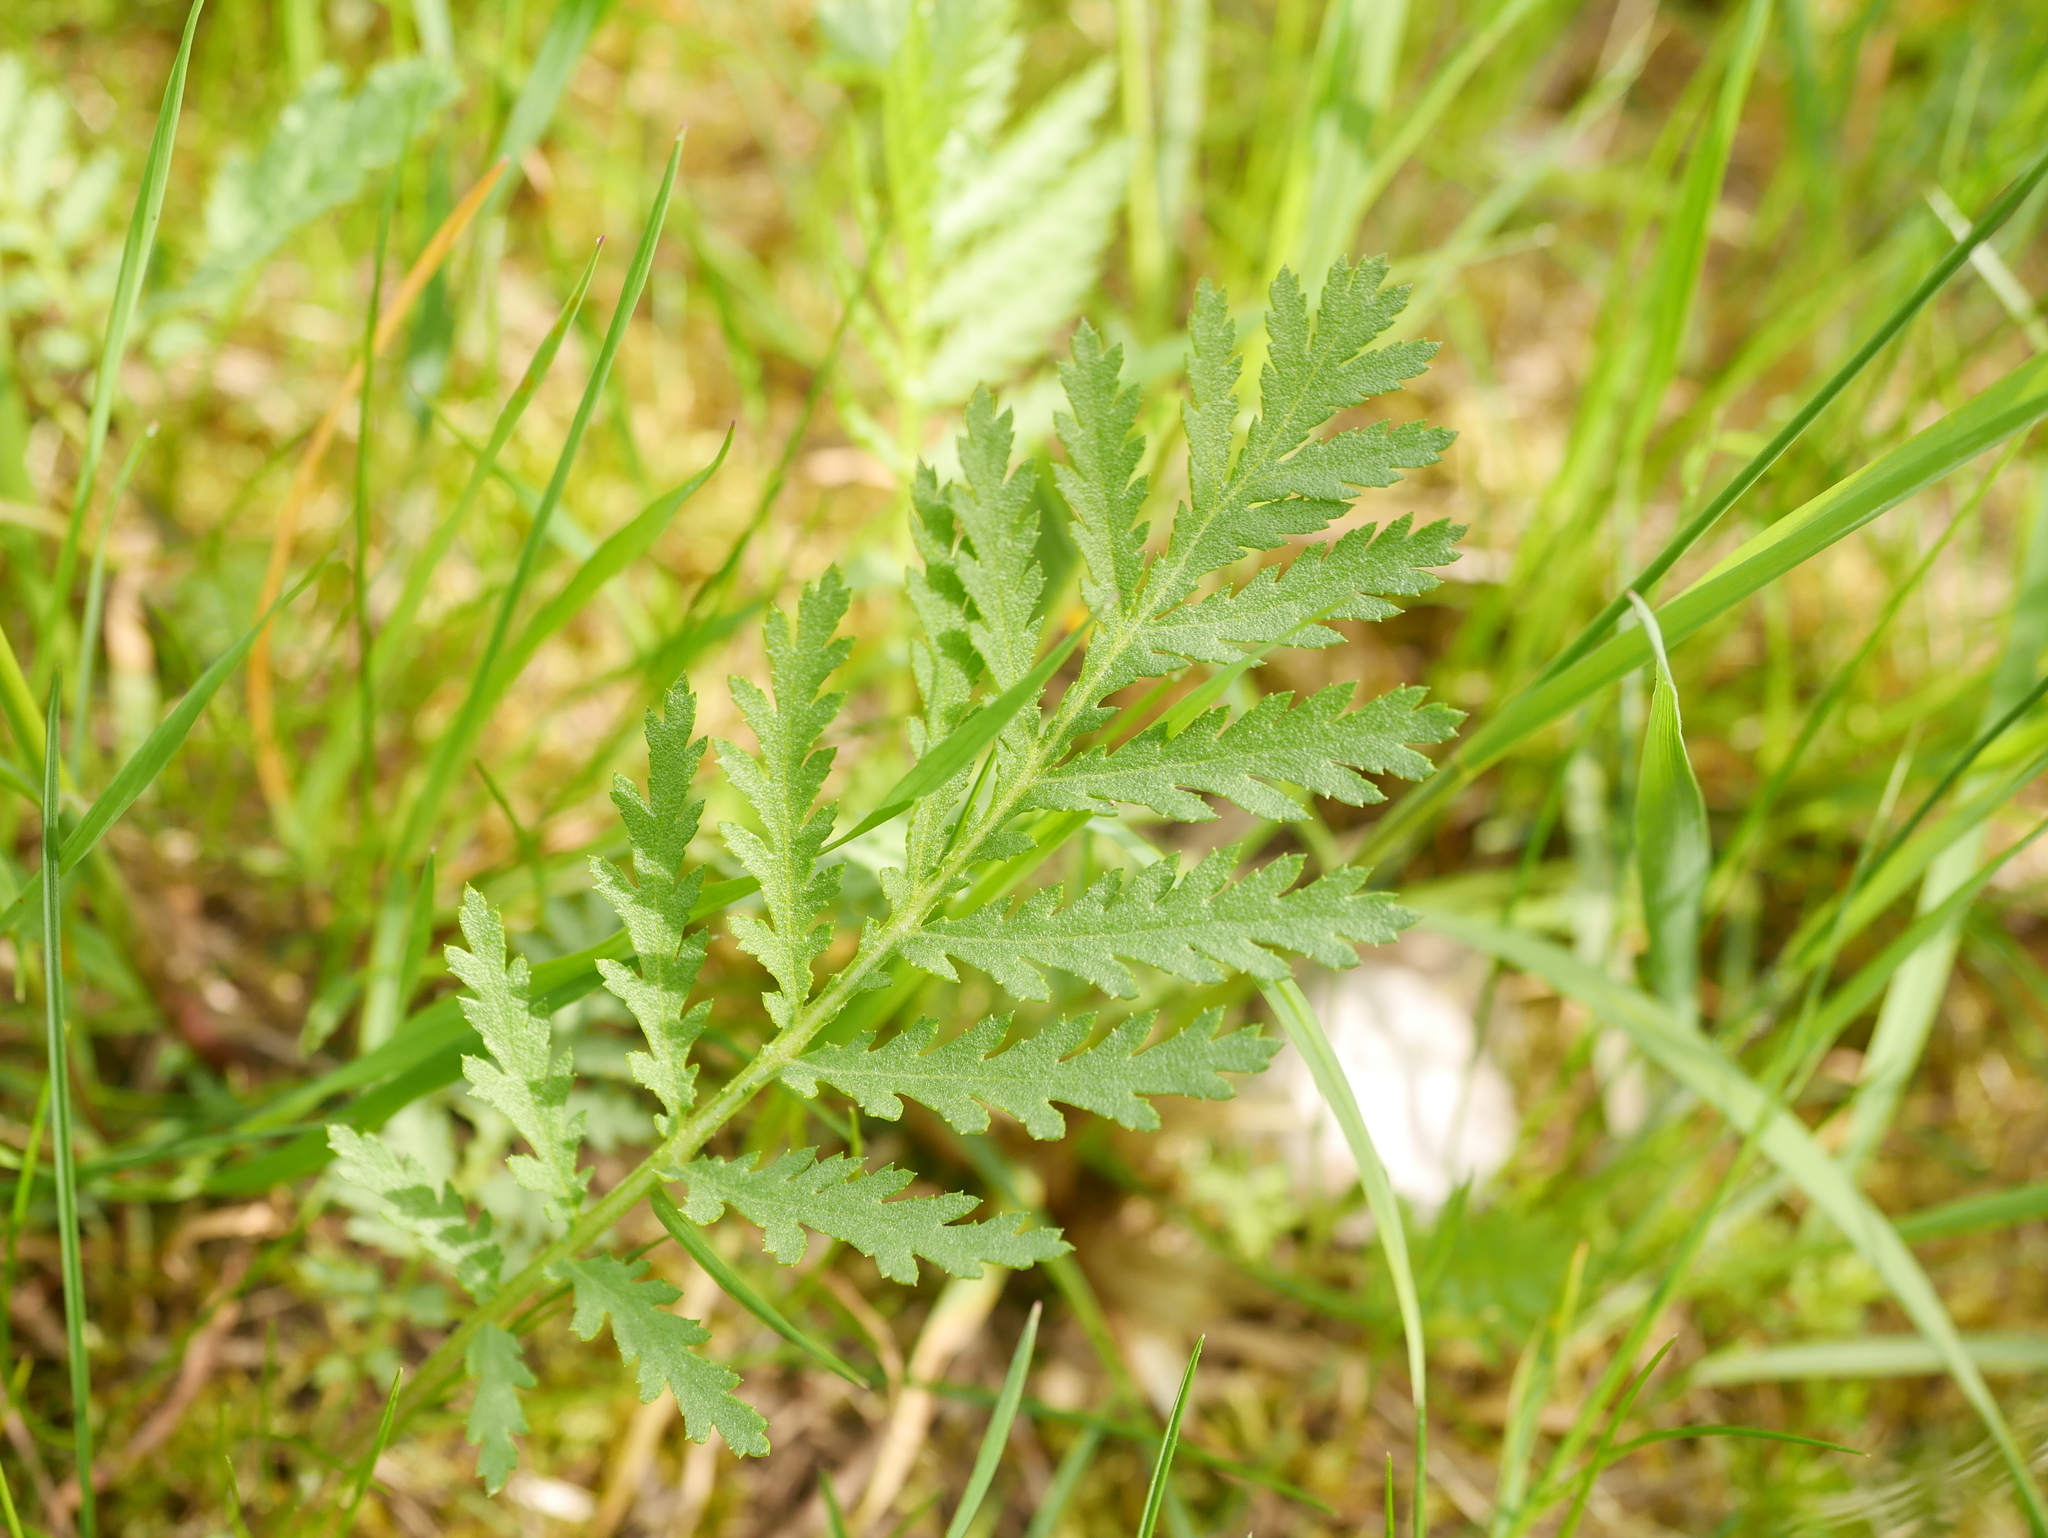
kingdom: Plantae
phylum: Tracheophyta
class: Magnoliopsida
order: Asterales
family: Asteraceae
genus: Tanacetum
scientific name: Tanacetum vulgare
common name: Common tansy
